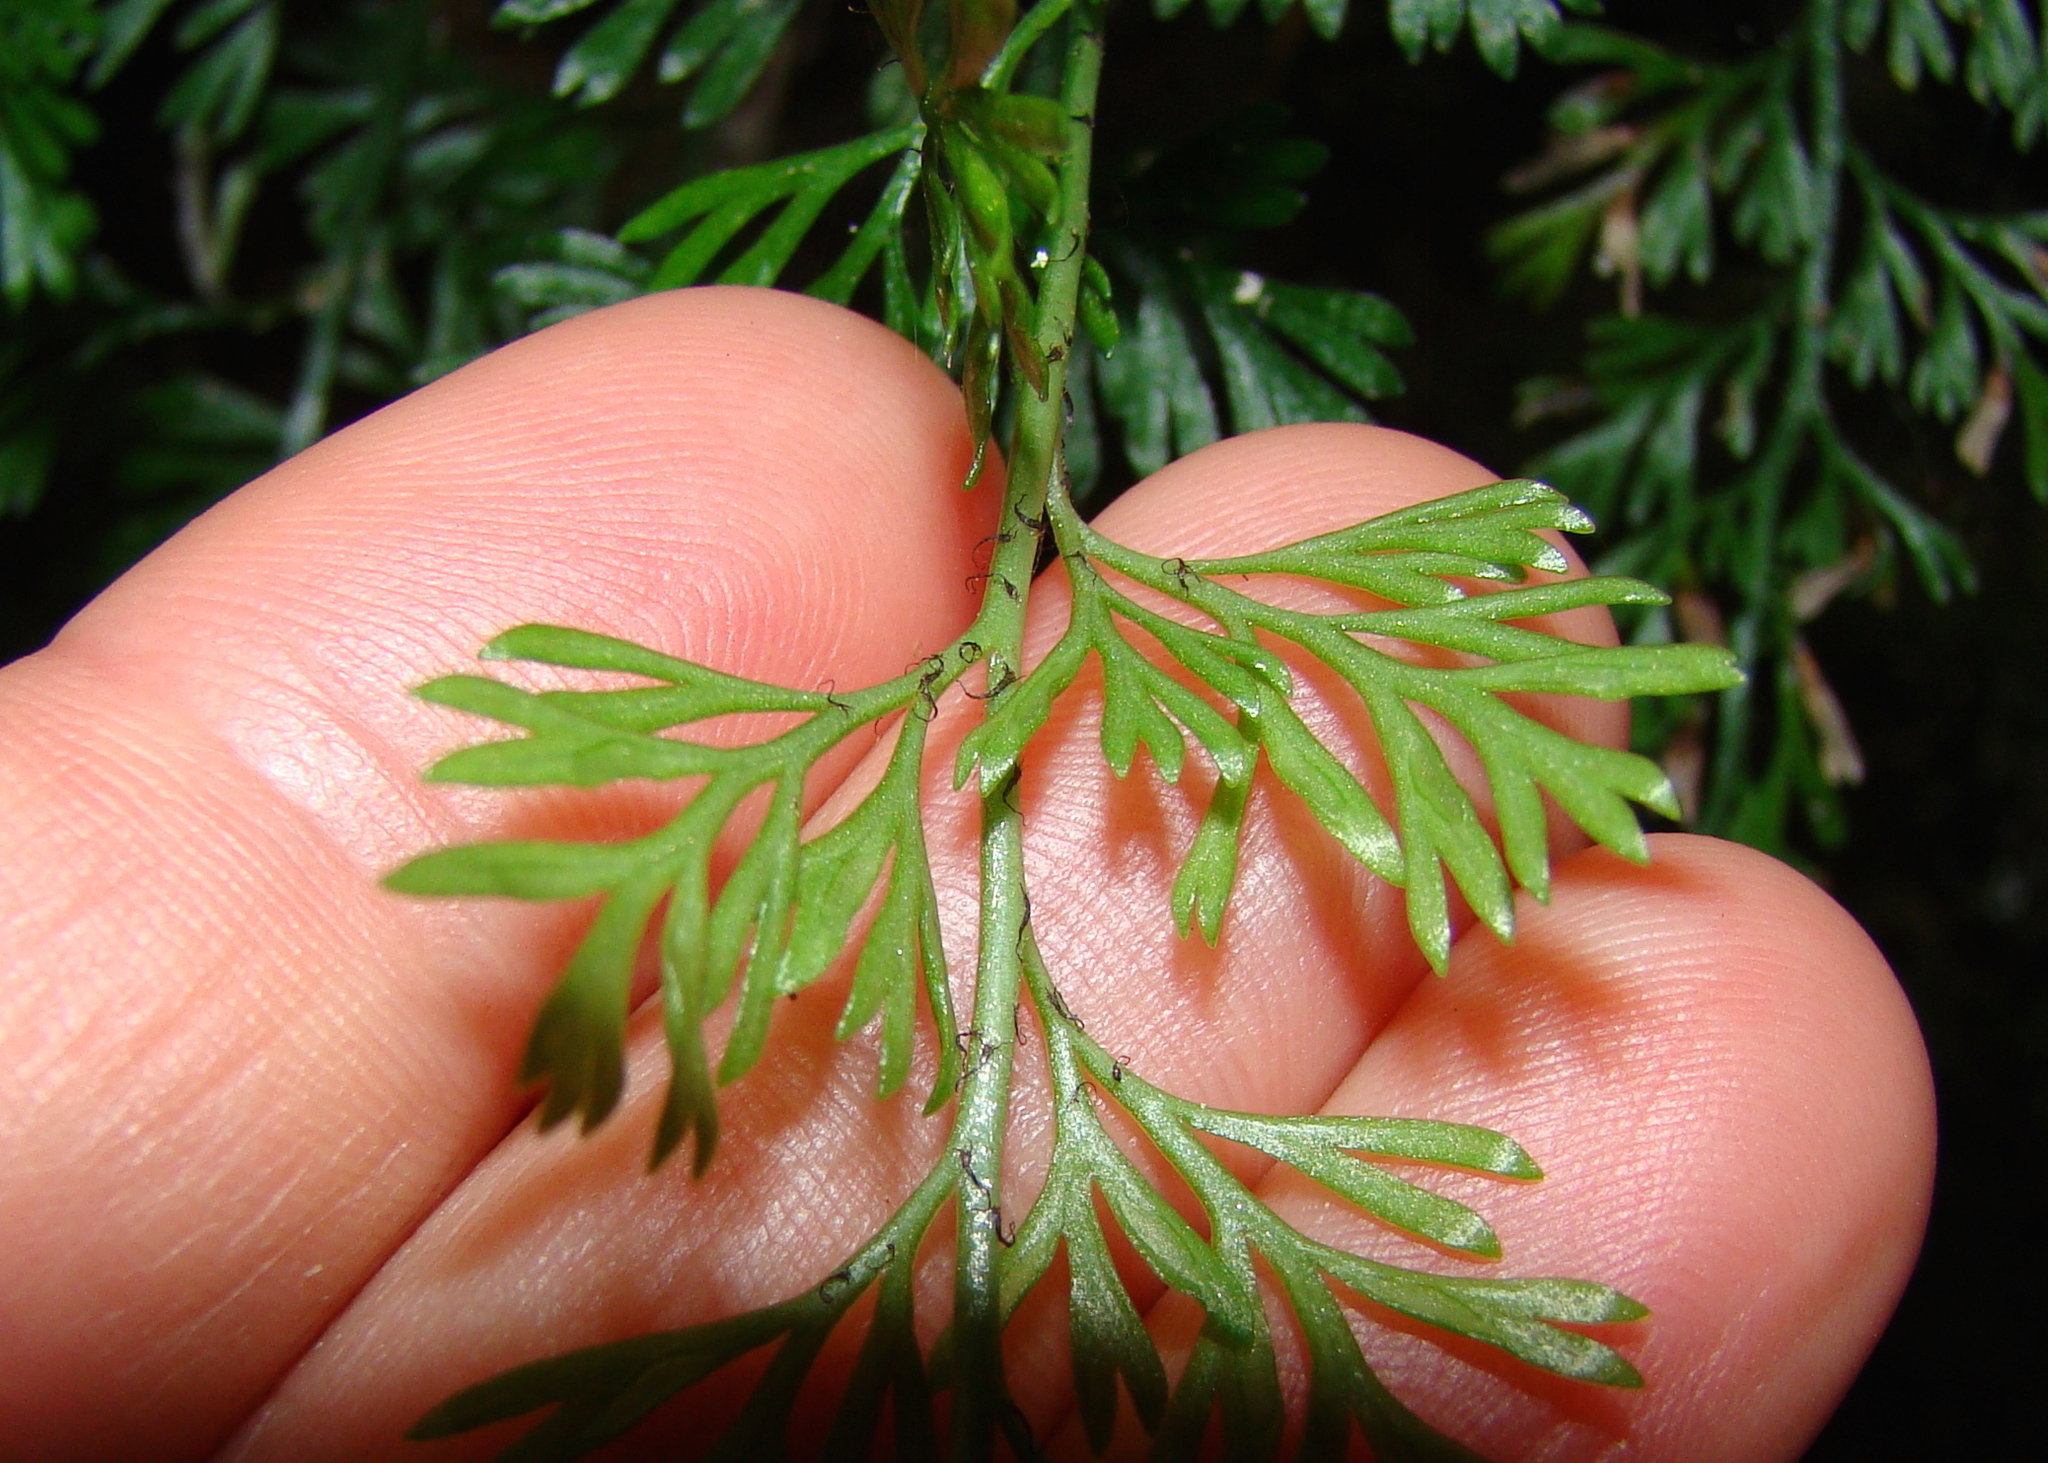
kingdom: Plantae
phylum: Tracheophyta
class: Polypodiopsida
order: Polypodiales
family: Aspleniaceae
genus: Asplenium
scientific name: Asplenium richardii
